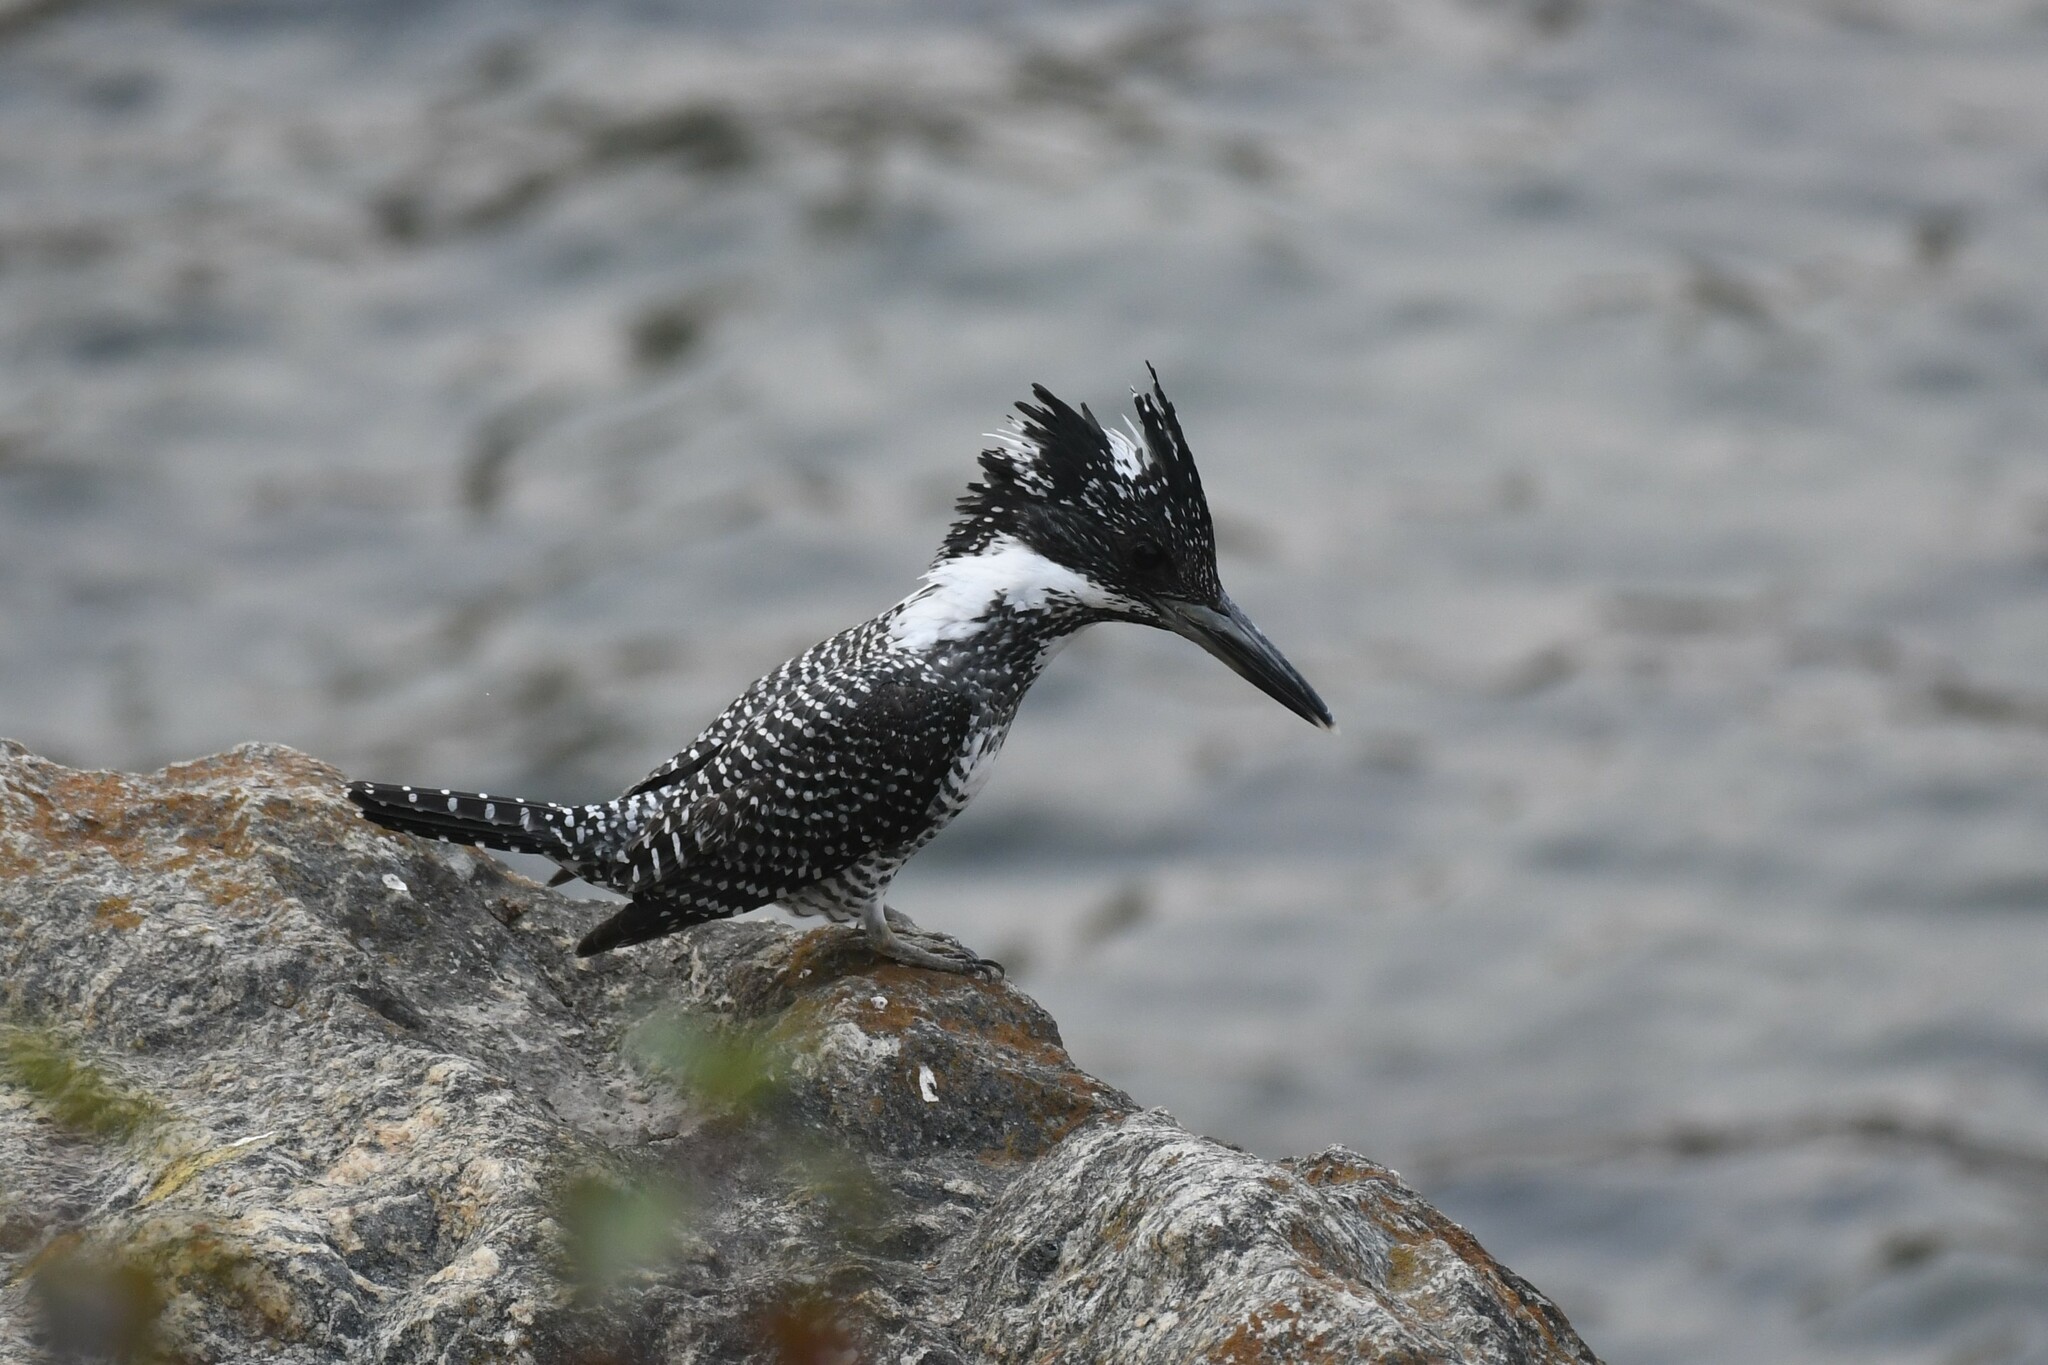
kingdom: Animalia
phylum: Chordata
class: Aves
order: Coraciiformes
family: Alcedinidae
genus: Megaceryle
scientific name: Megaceryle lugubris
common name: Crested kingfisher
